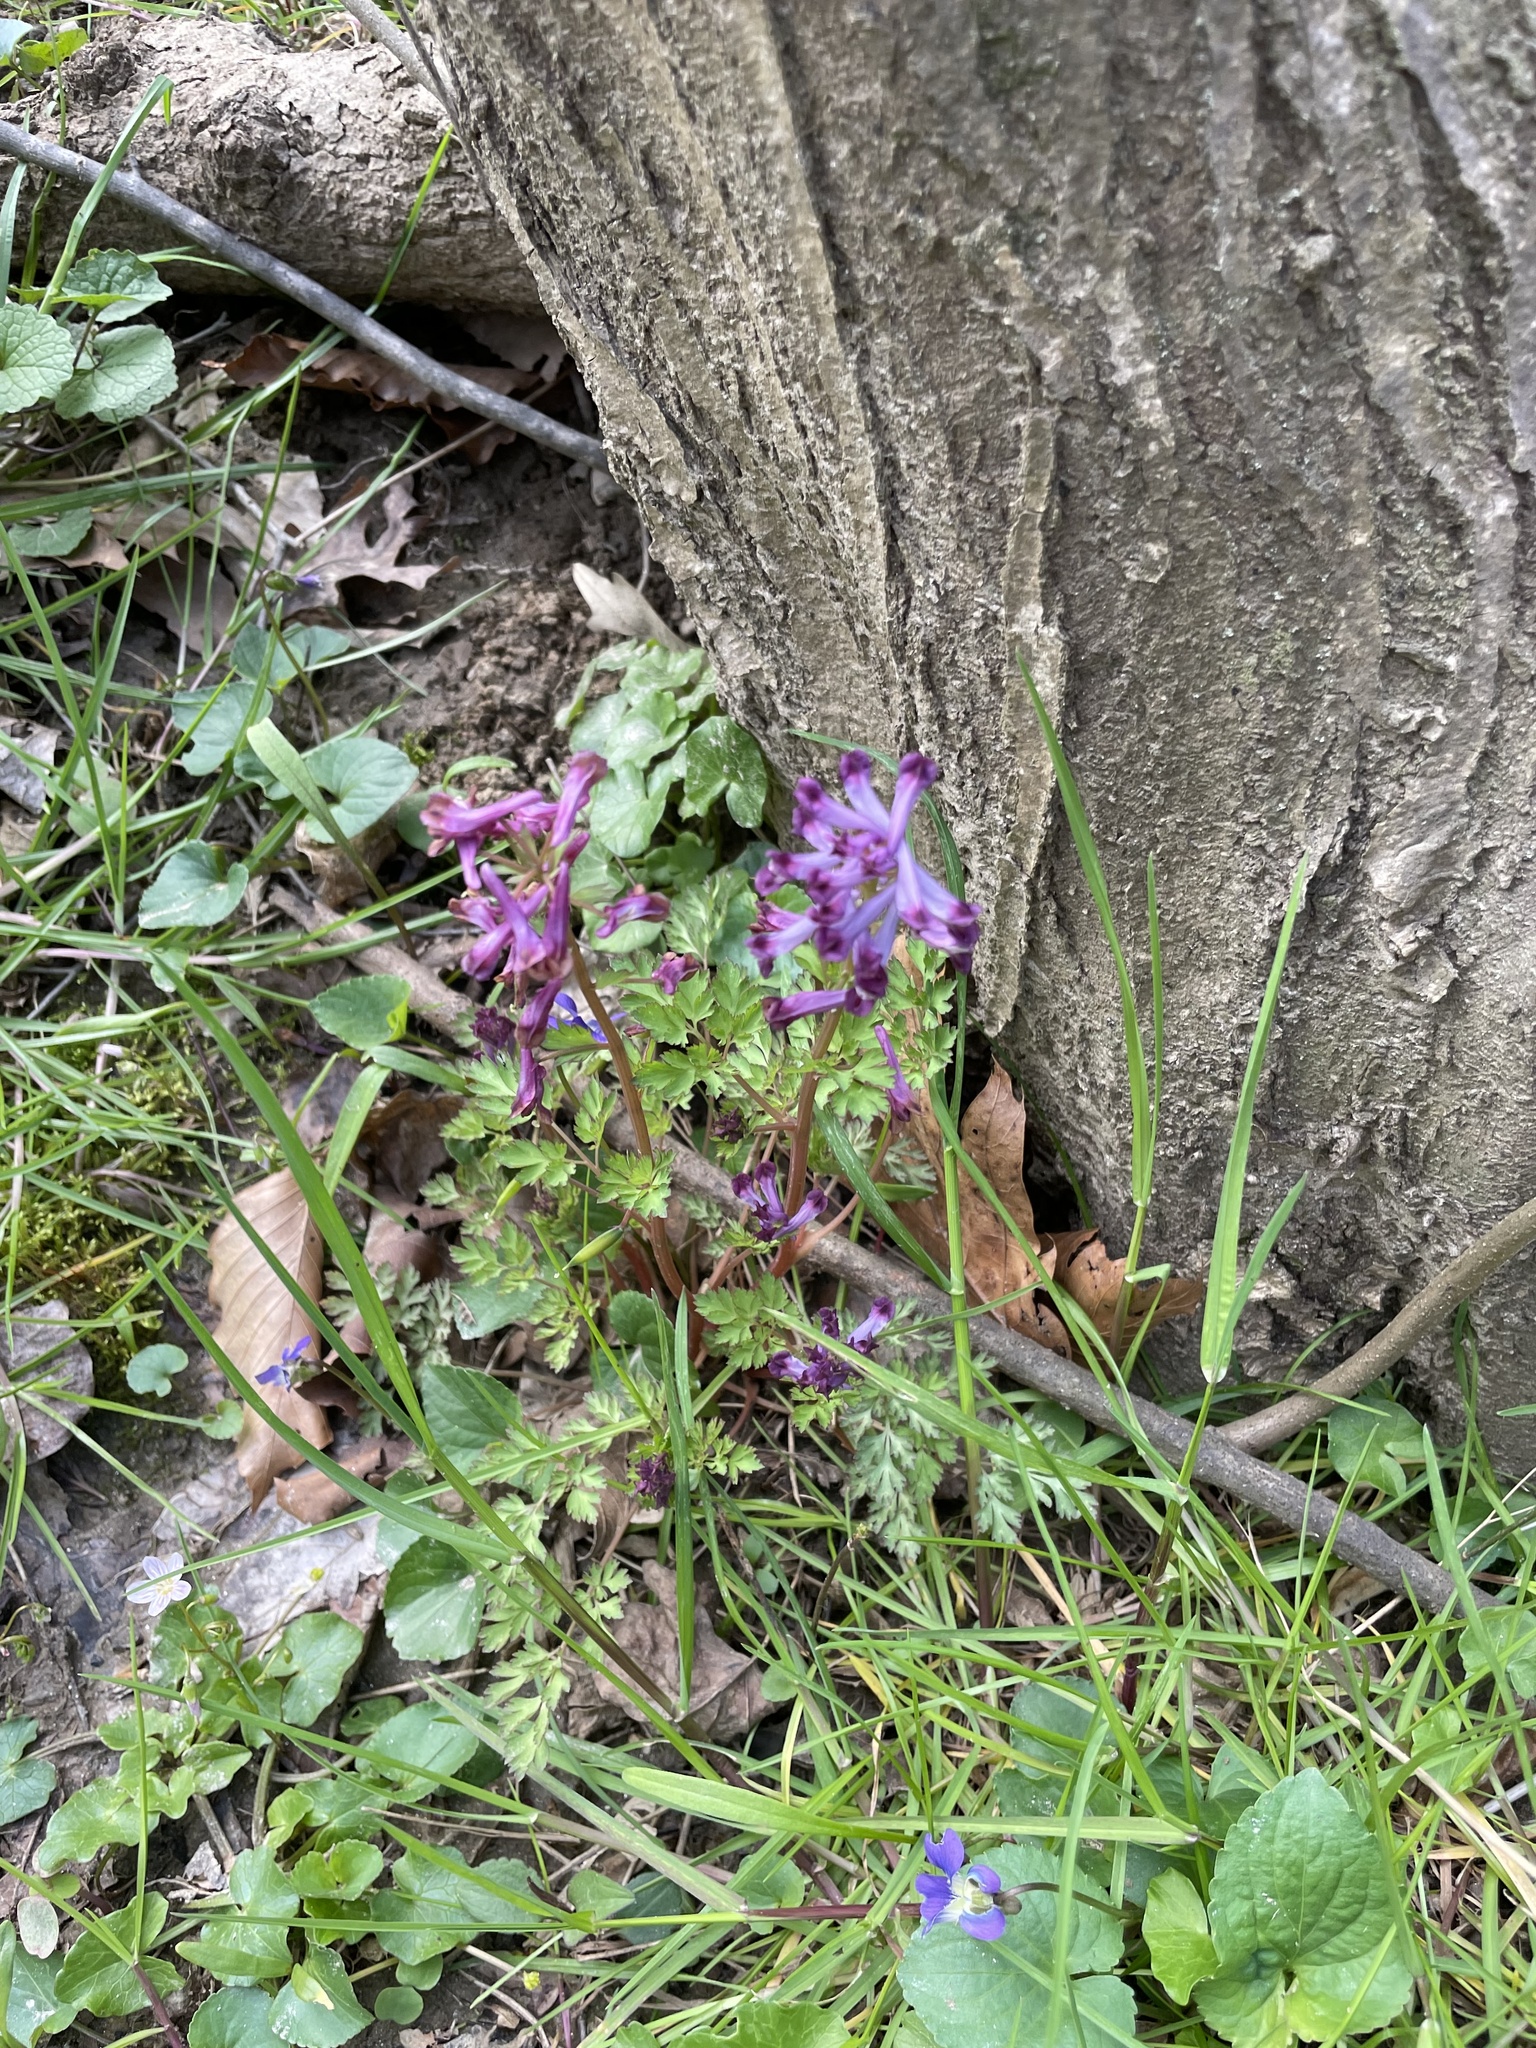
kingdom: Plantae
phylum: Tracheophyta
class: Magnoliopsida
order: Ranunculales
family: Papaveraceae
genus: Corydalis
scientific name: Corydalis incisa
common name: Incised fumewort
